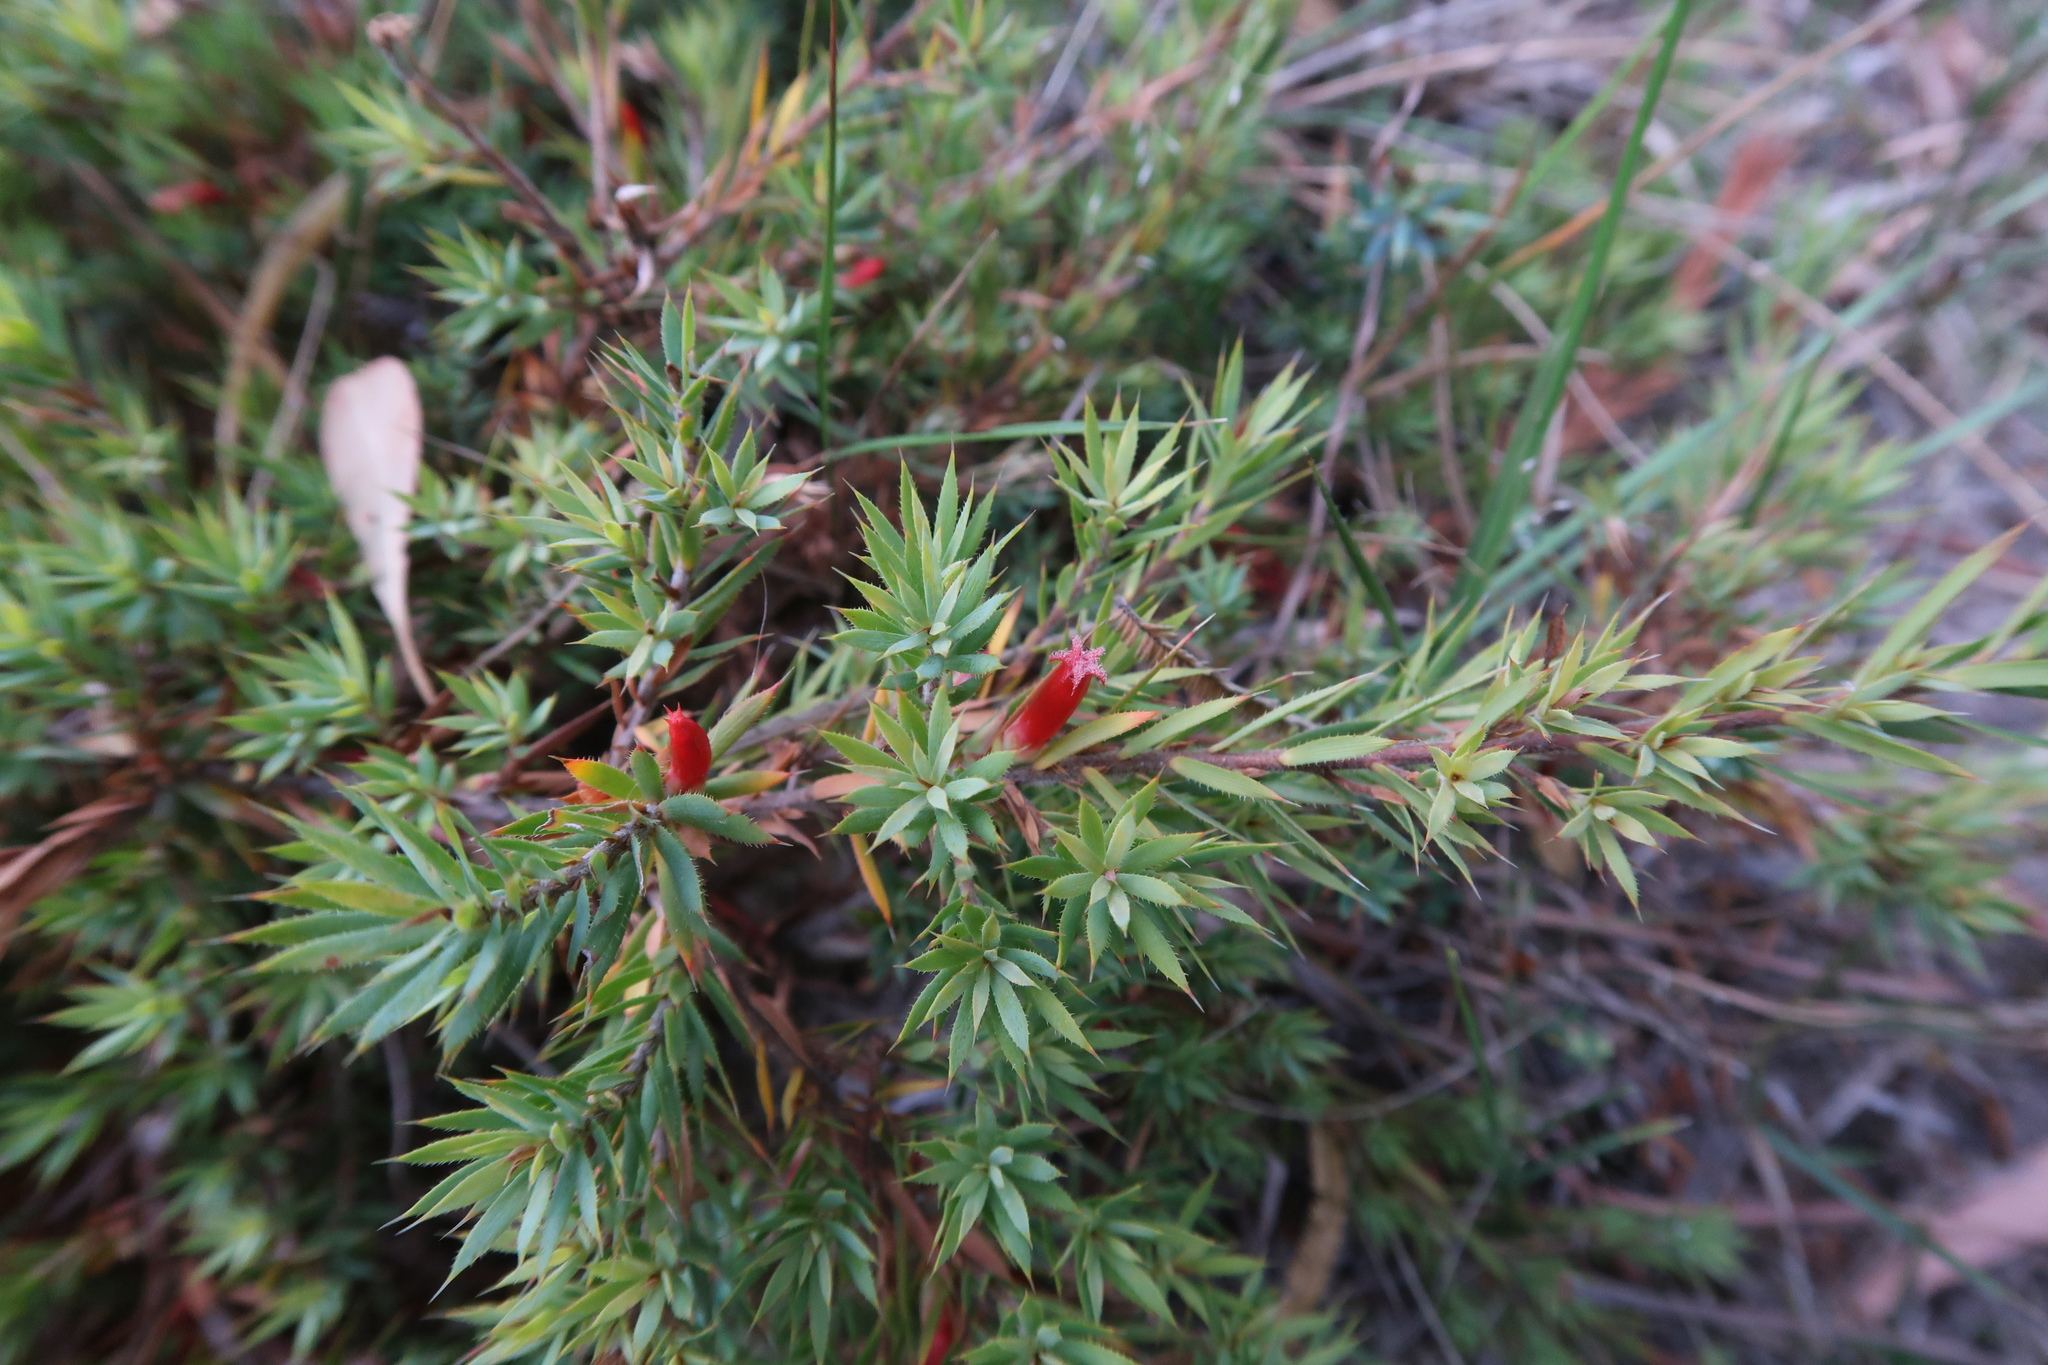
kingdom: Plantae
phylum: Tracheophyta
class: Magnoliopsida
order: Ericales
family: Ericaceae
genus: Styphelia
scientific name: Styphelia humifusa
